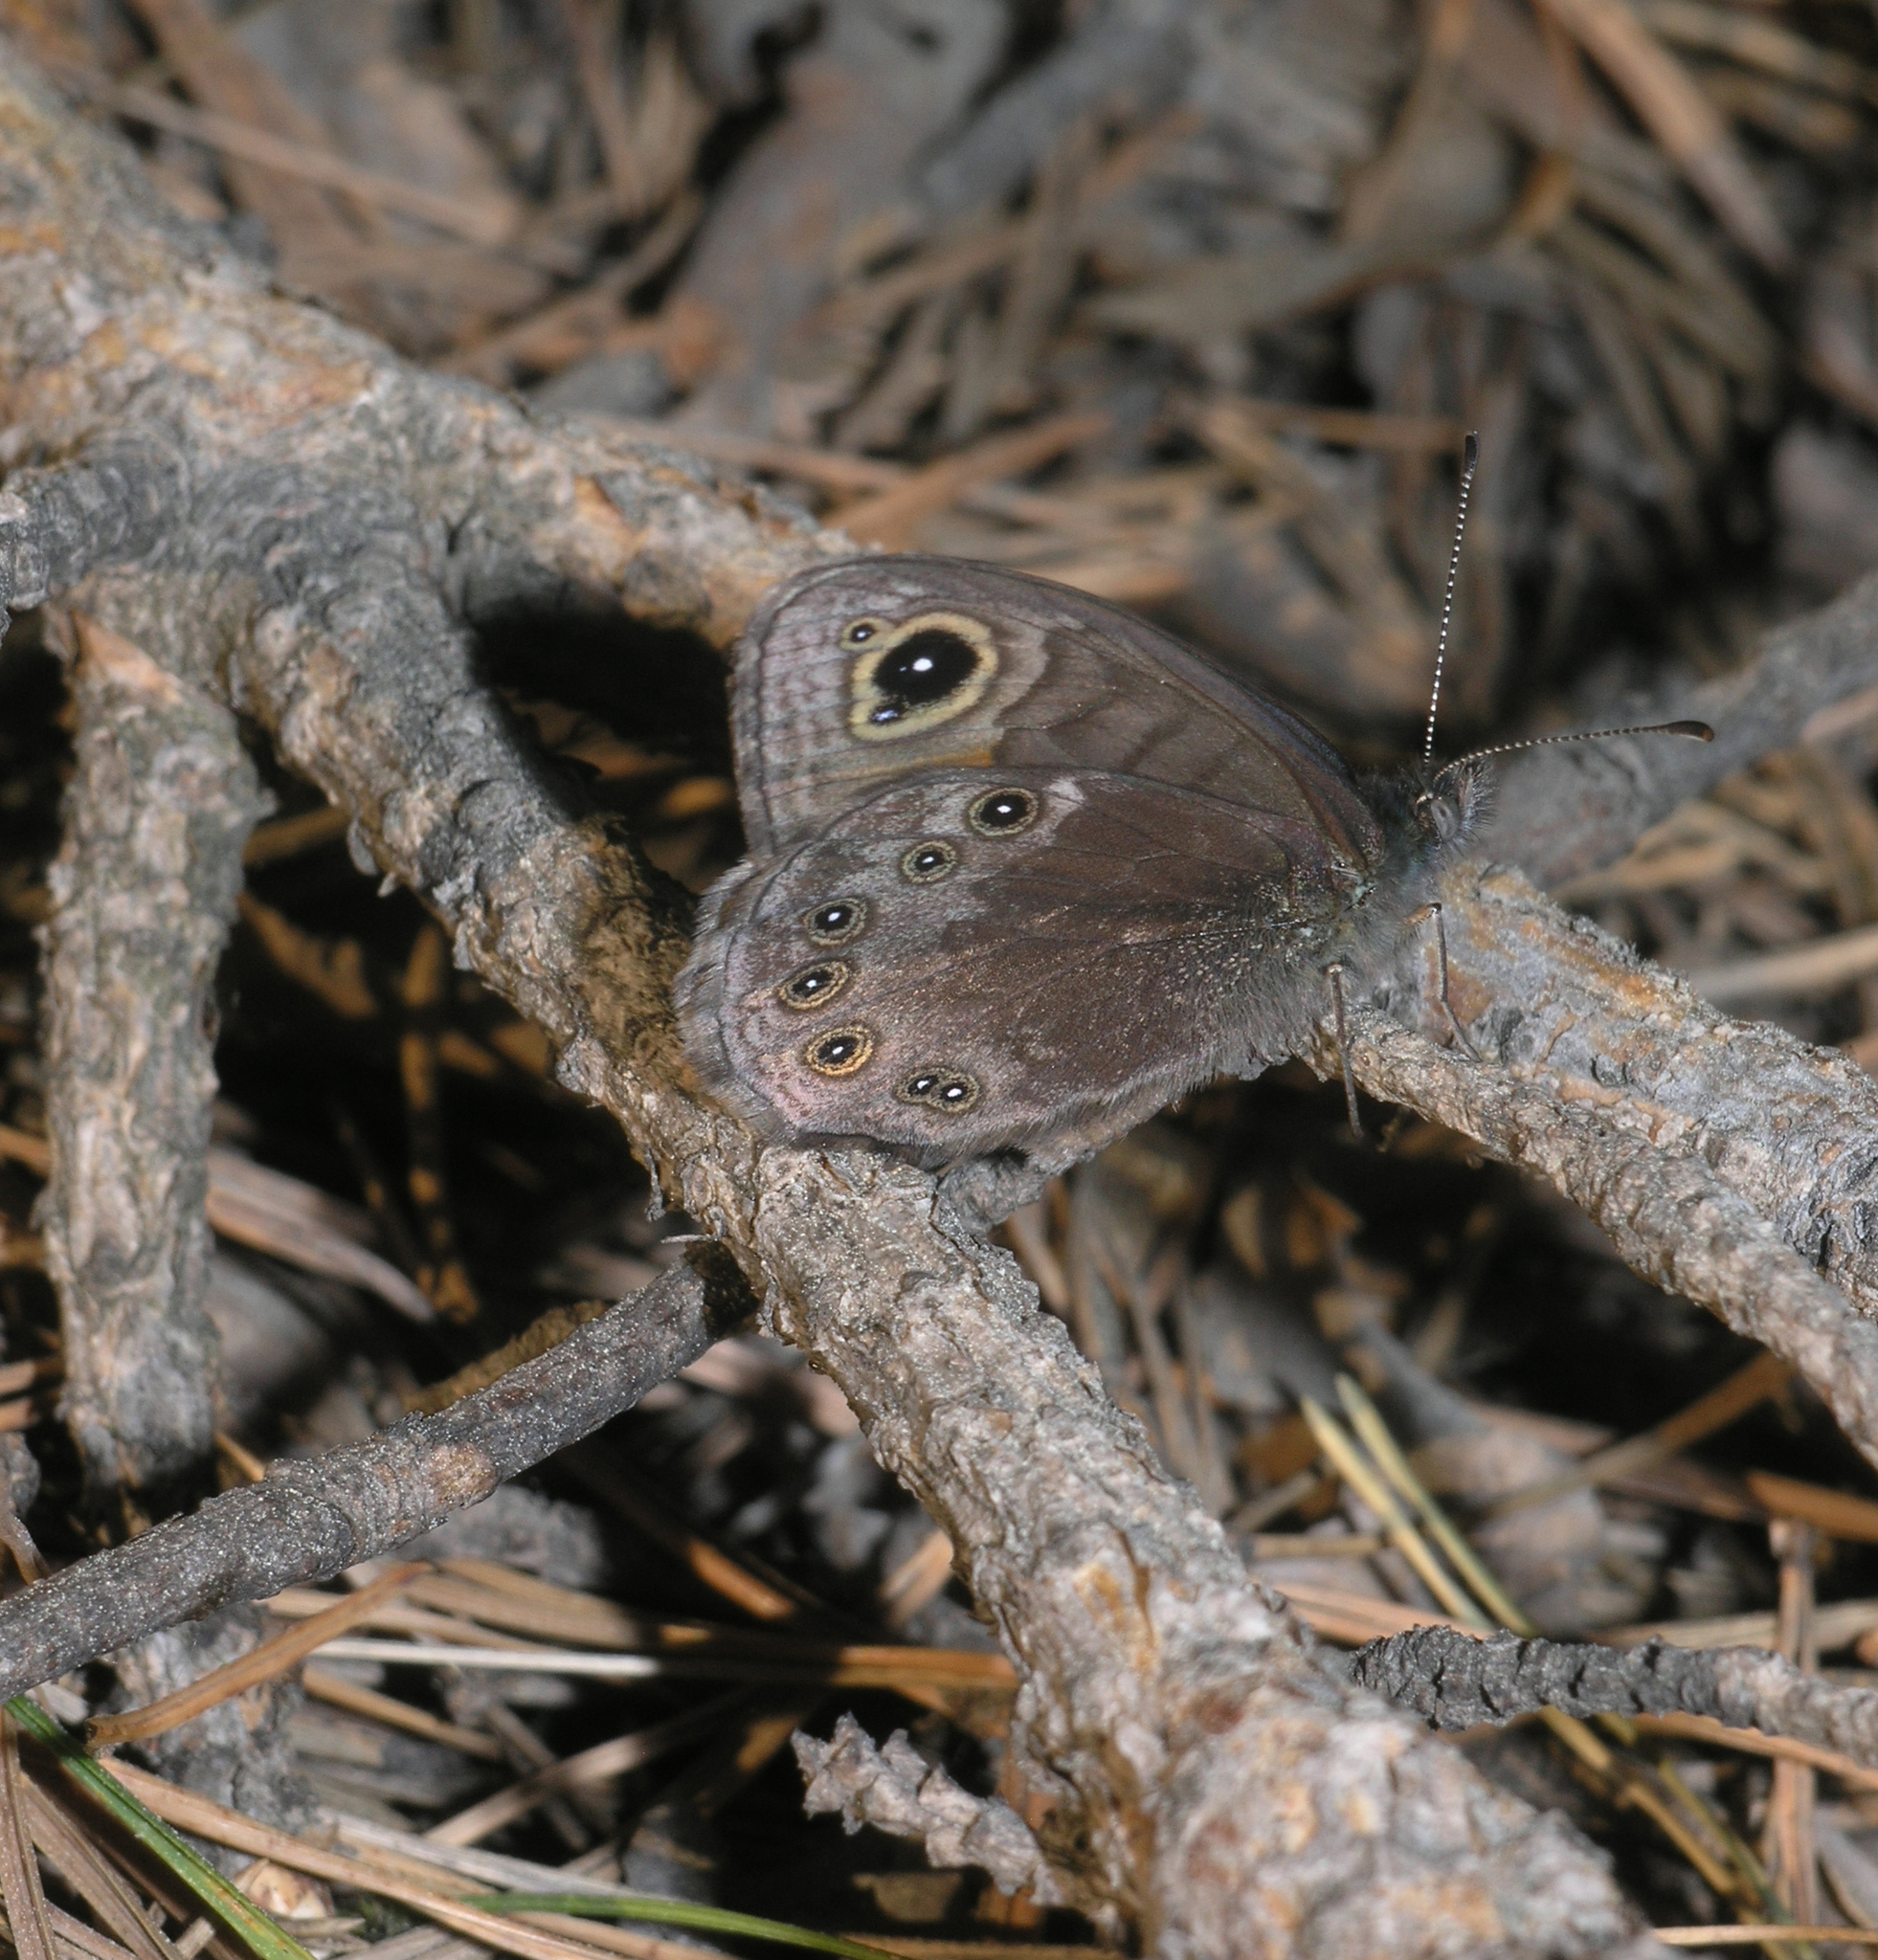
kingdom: Animalia
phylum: Arthropoda
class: Insecta
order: Lepidoptera
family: Nymphalidae
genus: Pararge
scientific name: Pararge petropolitana
